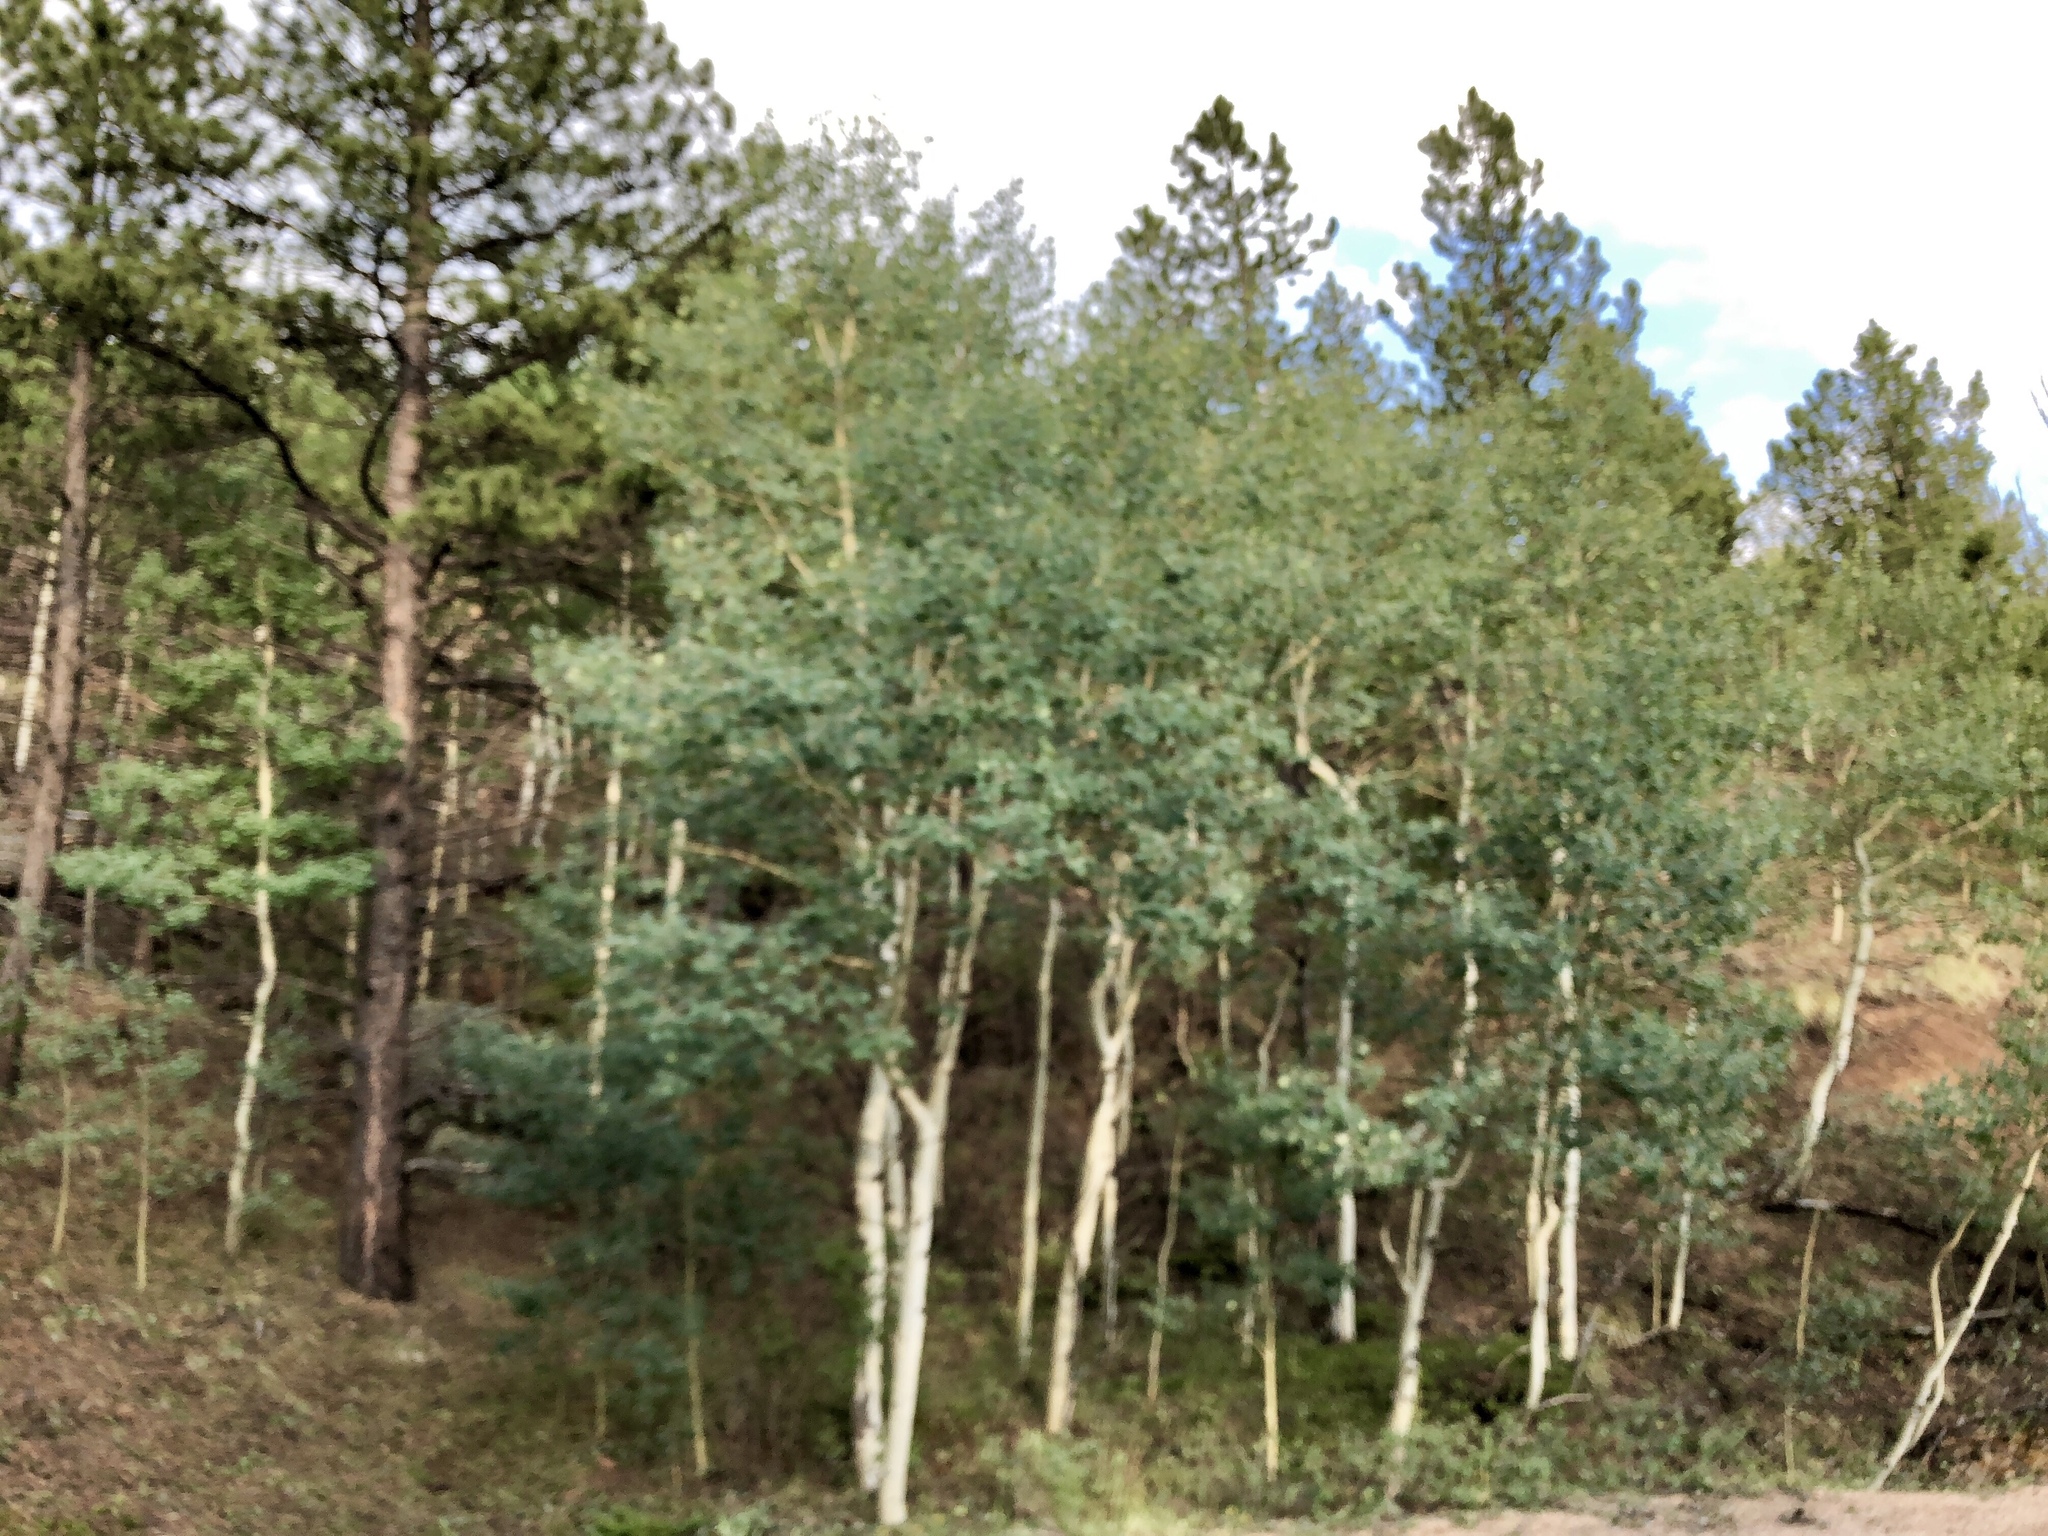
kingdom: Plantae
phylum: Tracheophyta
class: Magnoliopsida
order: Malpighiales
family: Salicaceae
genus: Populus
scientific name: Populus tremuloides
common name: Quaking aspen
